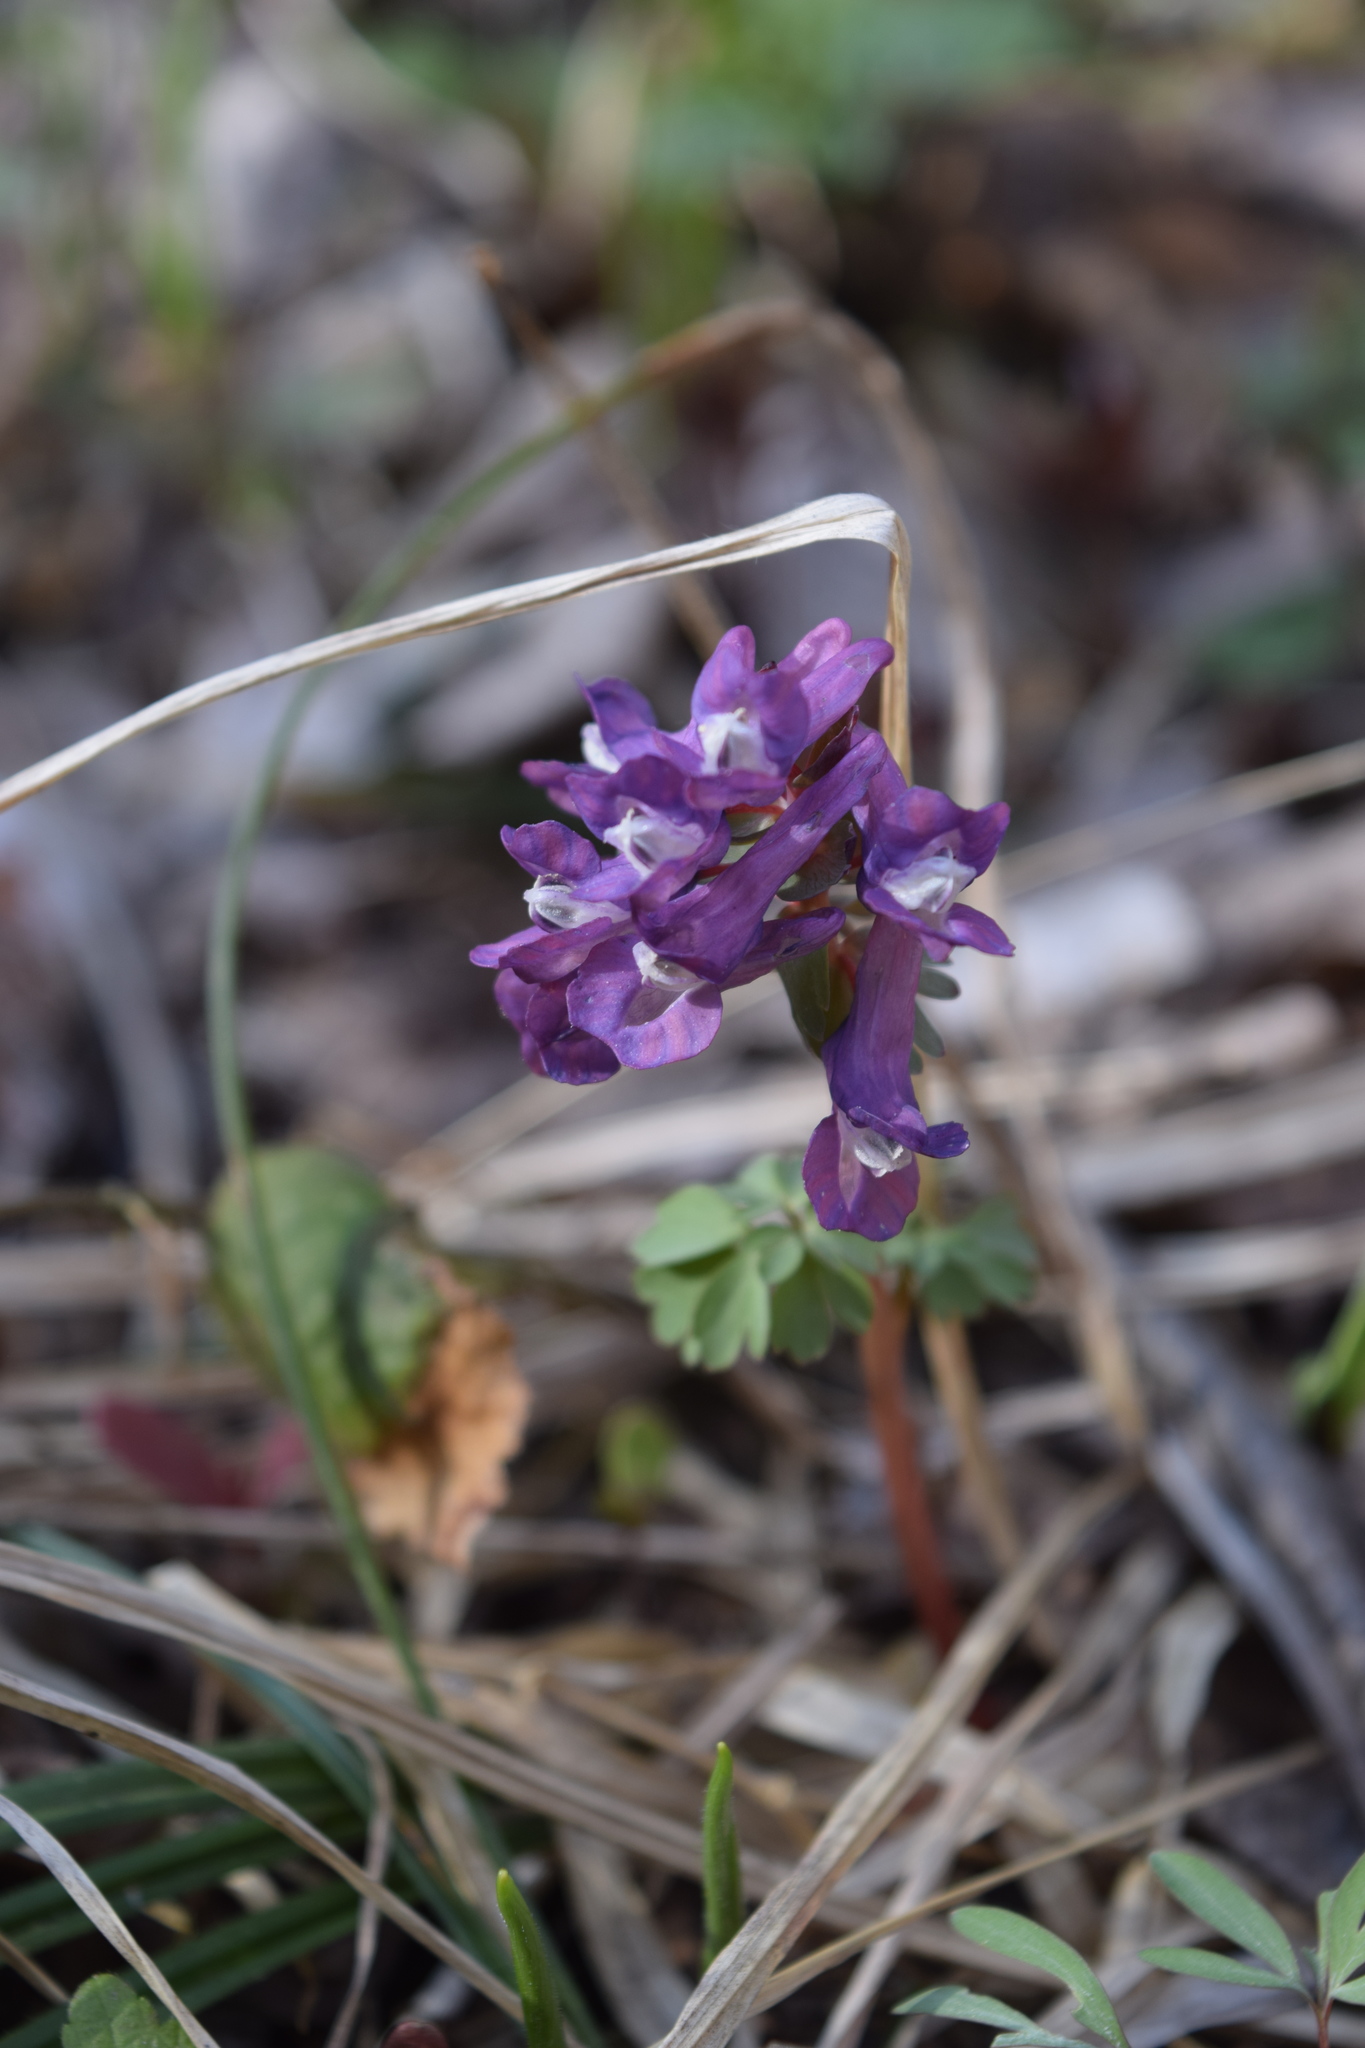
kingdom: Plantae
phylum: Tracheophyta
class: Magnoliopsida
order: Ranunculales
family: Papaveraceae
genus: Corydalis
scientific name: Corydalis solida
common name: Bird-in-a-bush
